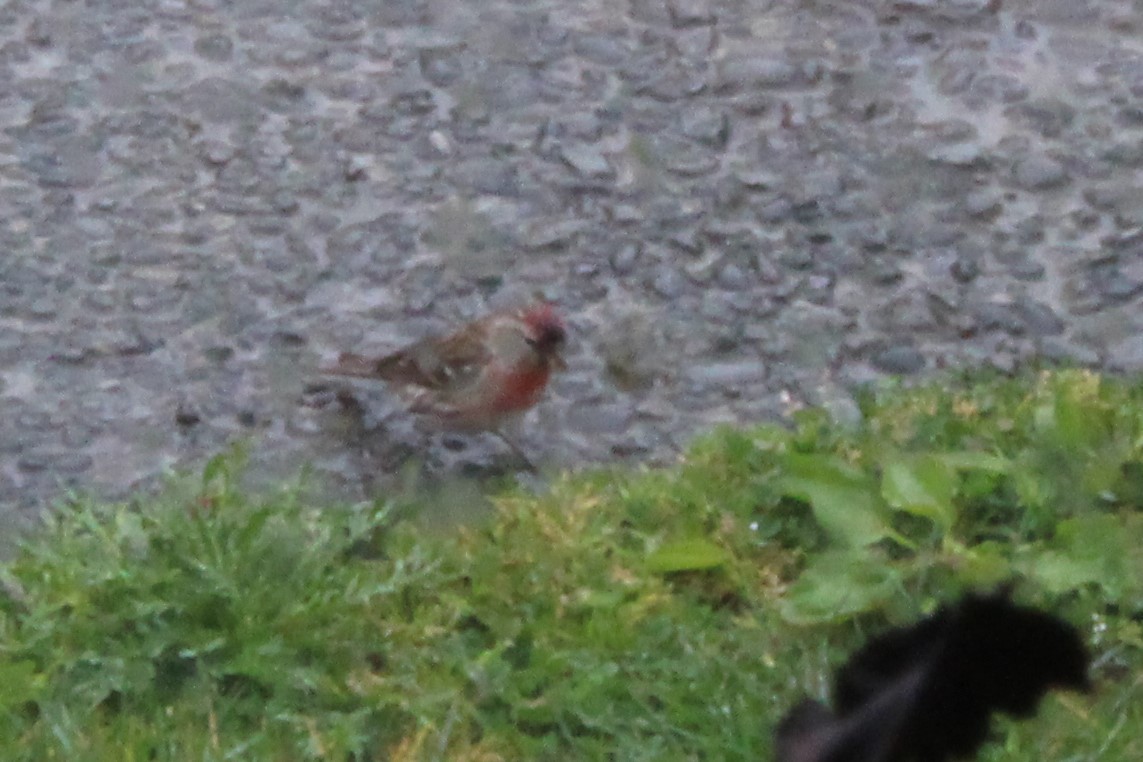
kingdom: Animalia
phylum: Chordata
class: Aves
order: Passeriformes
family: Fringillidae
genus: Acanthis
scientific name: Acanthis flammea
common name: Common redpoll
